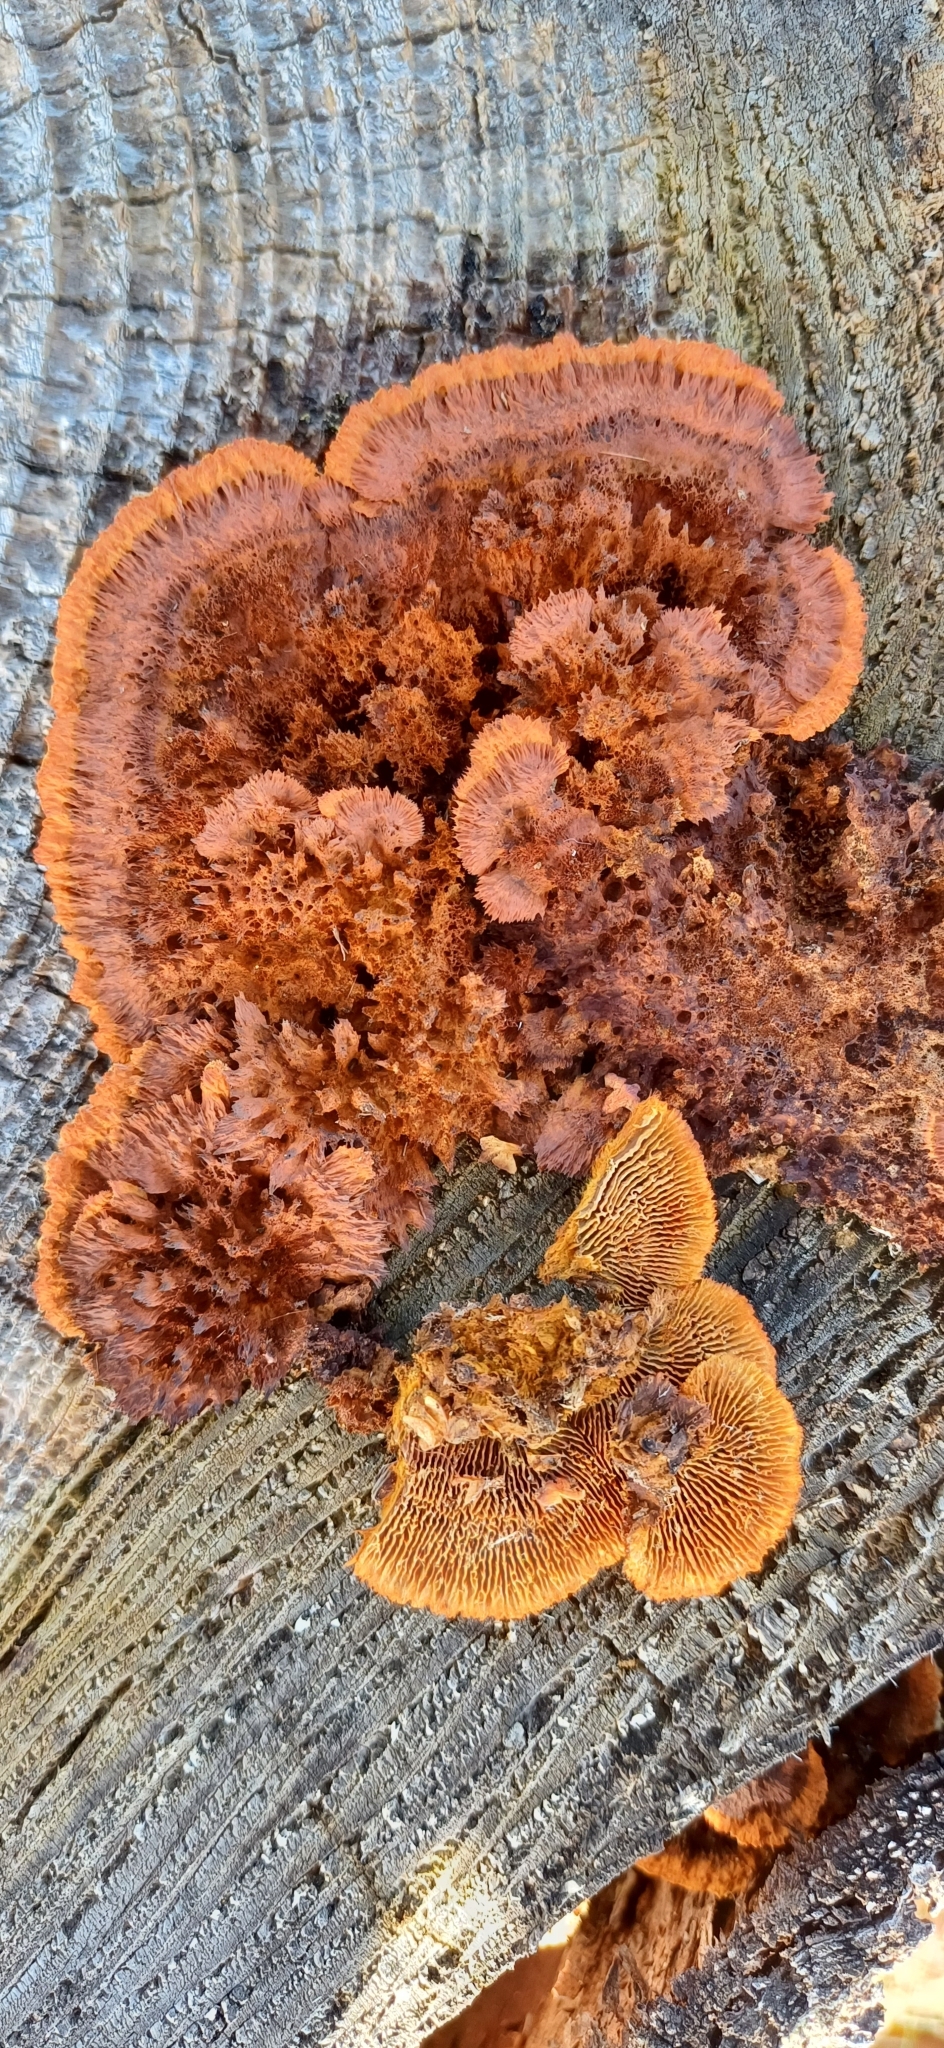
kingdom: Fungi
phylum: Basidiomycota
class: Agaricomycetes
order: Gloeophyllales
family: Gloeophyllaceae
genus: Gloeophyllum
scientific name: Gloeophyllum sepiarium
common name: Conifer mazegill
